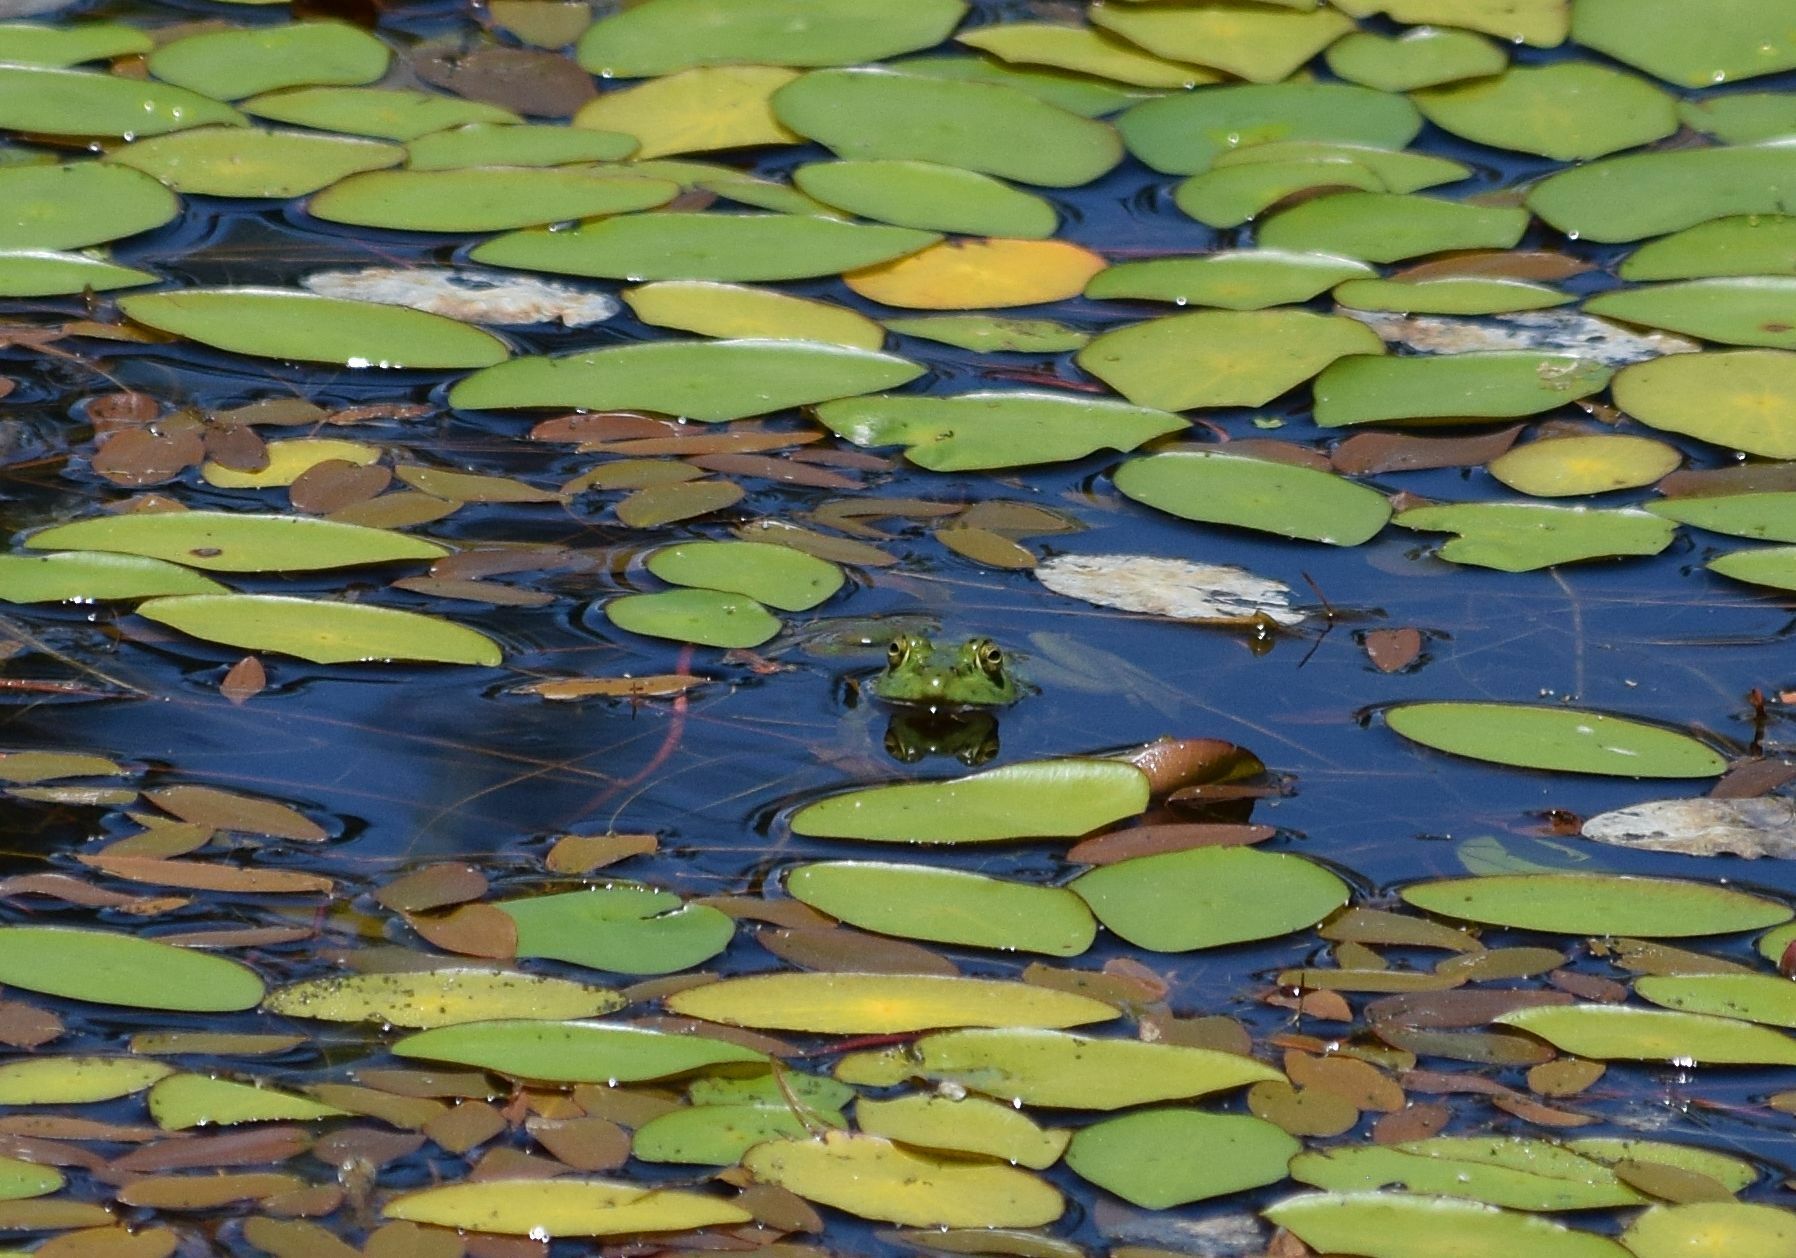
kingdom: Animalia
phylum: Chordata
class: Amphibia
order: Anura
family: Ranidae
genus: Lithobates
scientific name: Lithobates catesbeianus
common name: American bullfrog
